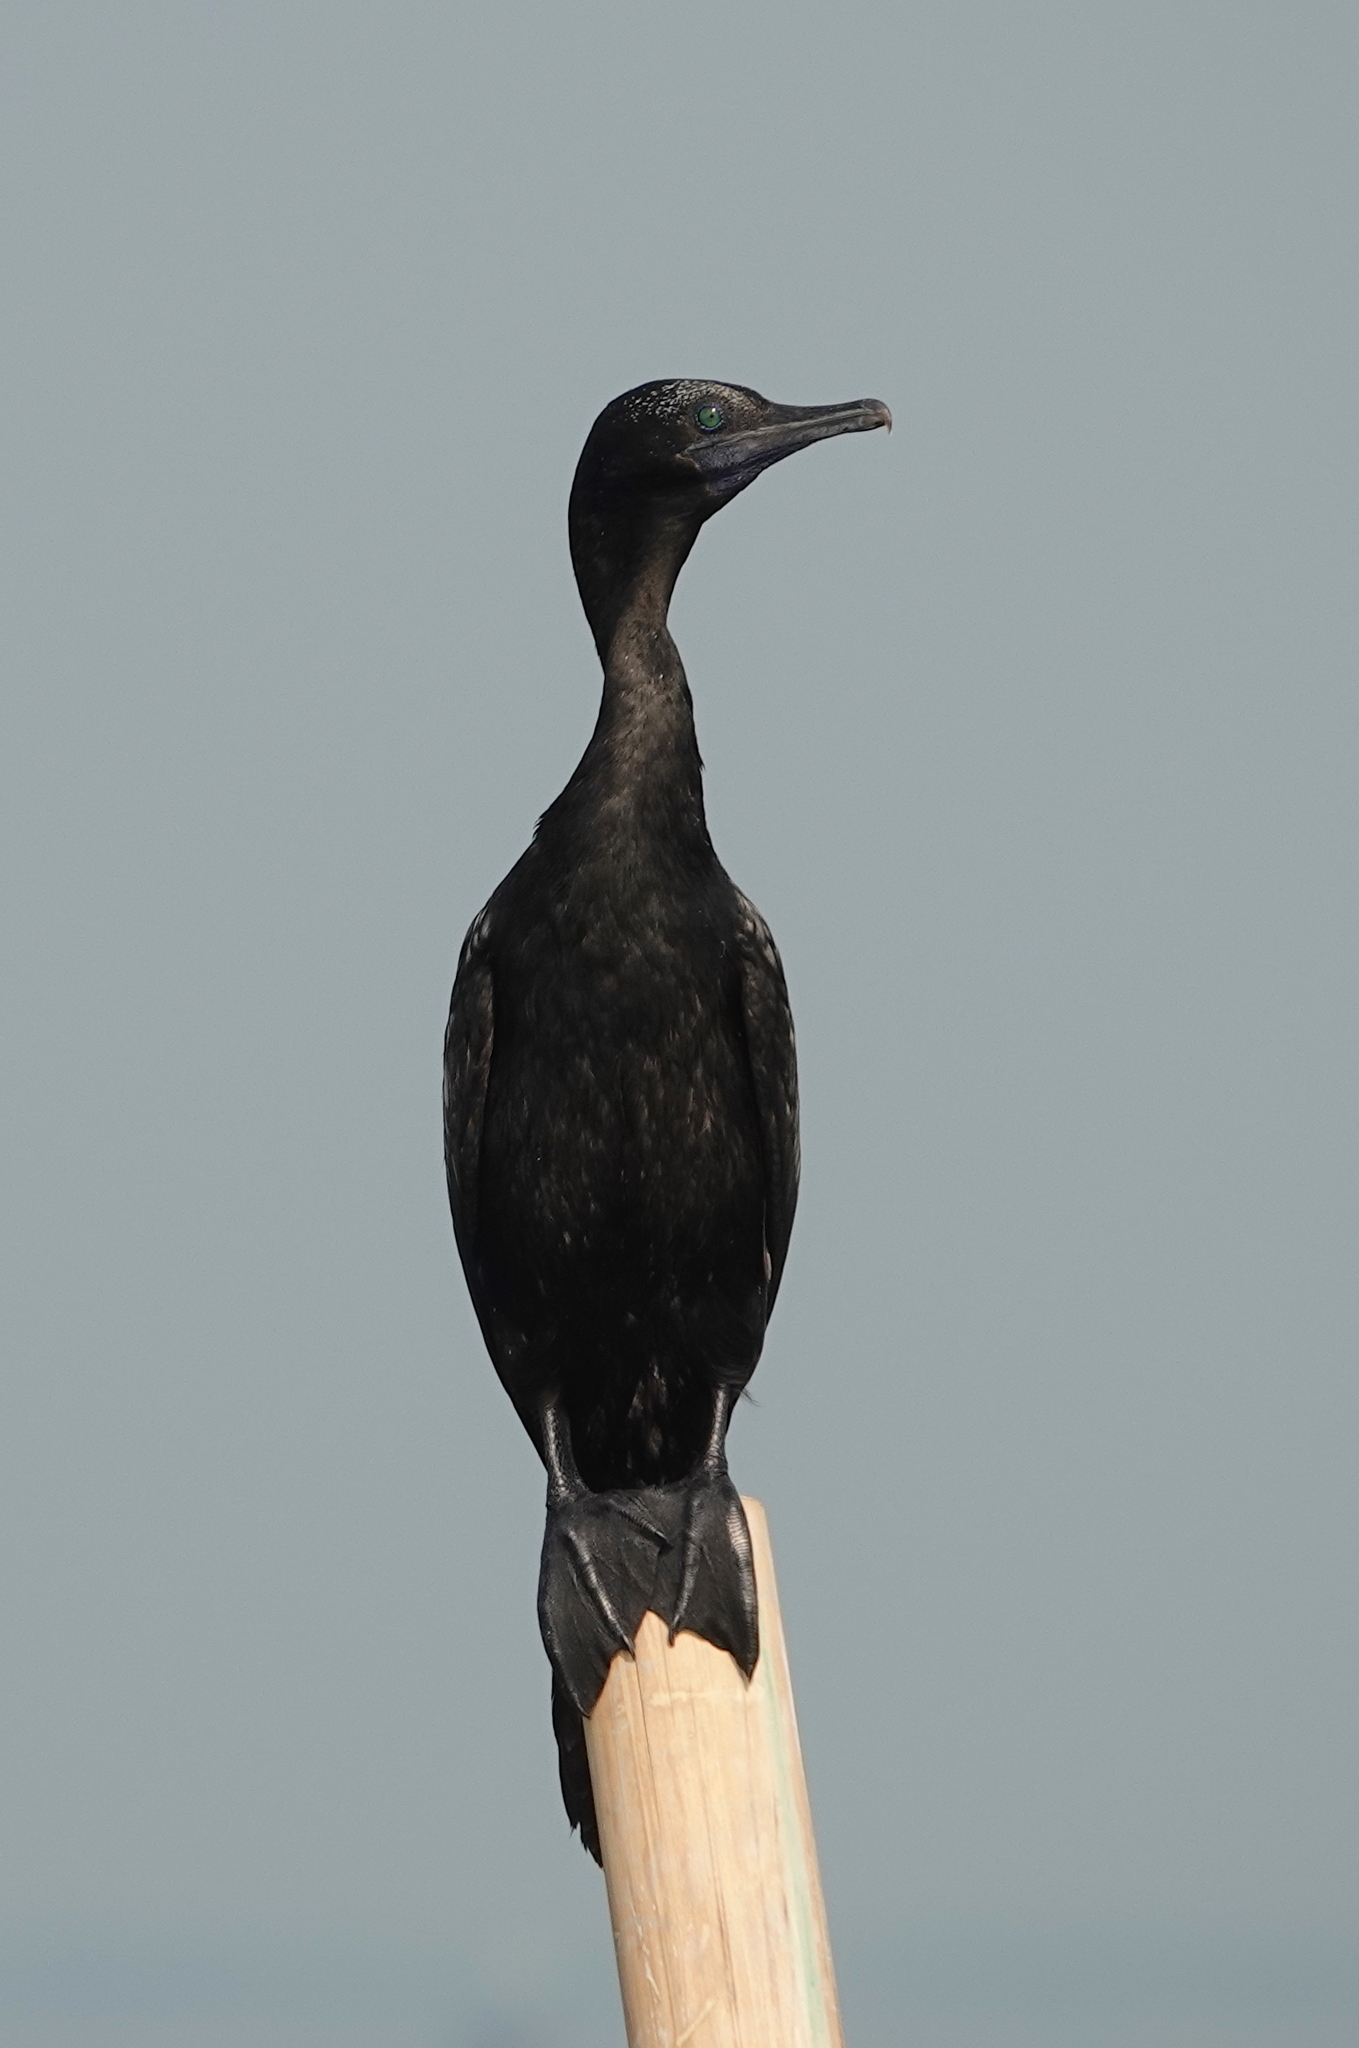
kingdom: Animalia
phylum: Chordata
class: Aves
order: Suliformes
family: Phalacrocoracidae
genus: Phalacrocorax
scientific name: Phalacrocorax sulcirostris
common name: Little black cormorant
